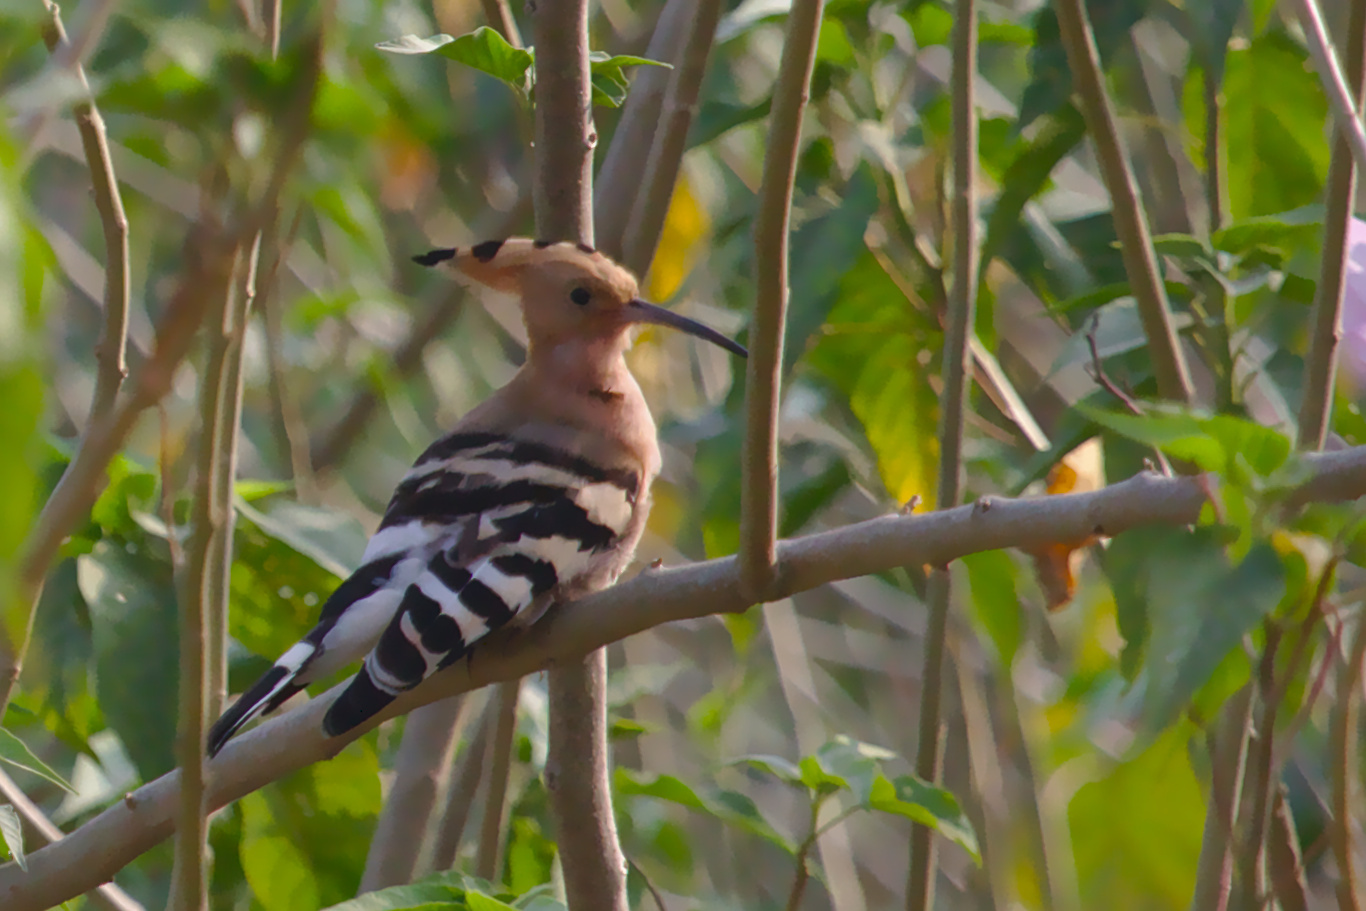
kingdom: Animalia
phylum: Chordata
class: Aves
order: Bucerotiformes
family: Upupidae
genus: Upupa
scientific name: Upupa epops
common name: Eurasian hoopoe
